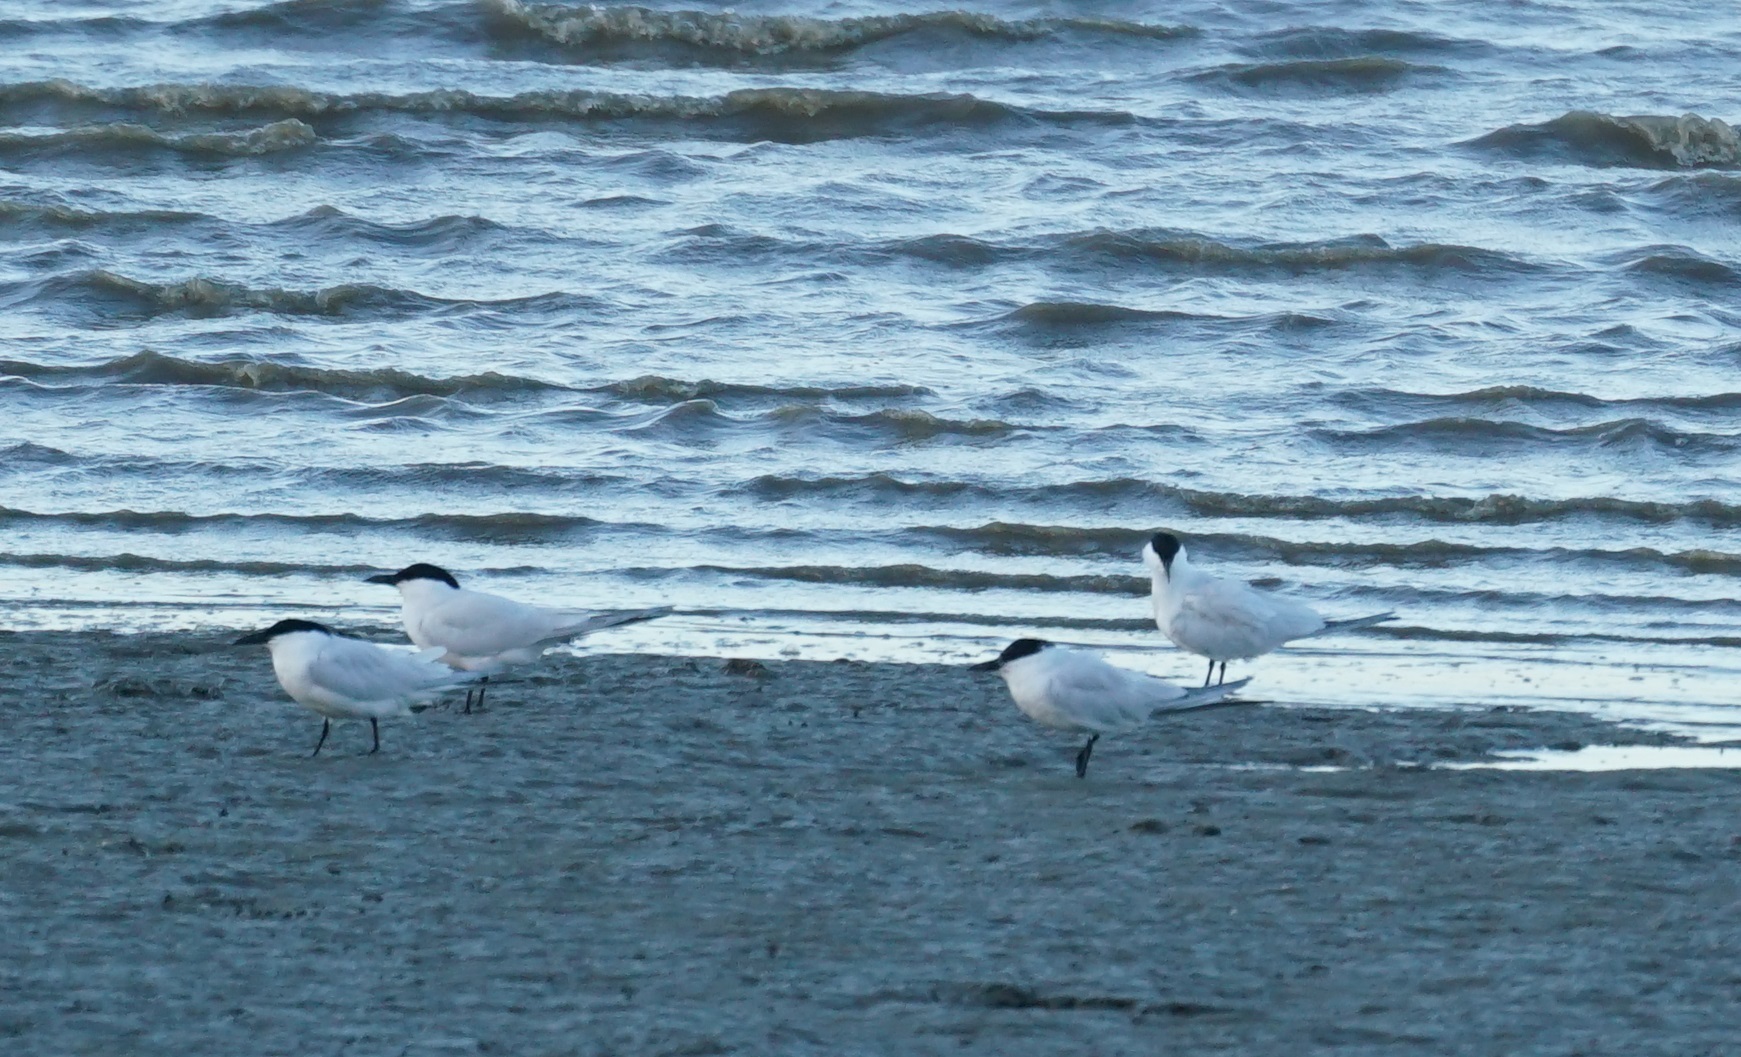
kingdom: Animalia
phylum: Chordata
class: Aves
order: Charadriiformes
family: Laridae
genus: Gelochelidon
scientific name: Gelochelidon macrotarsa
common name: Australian tern
